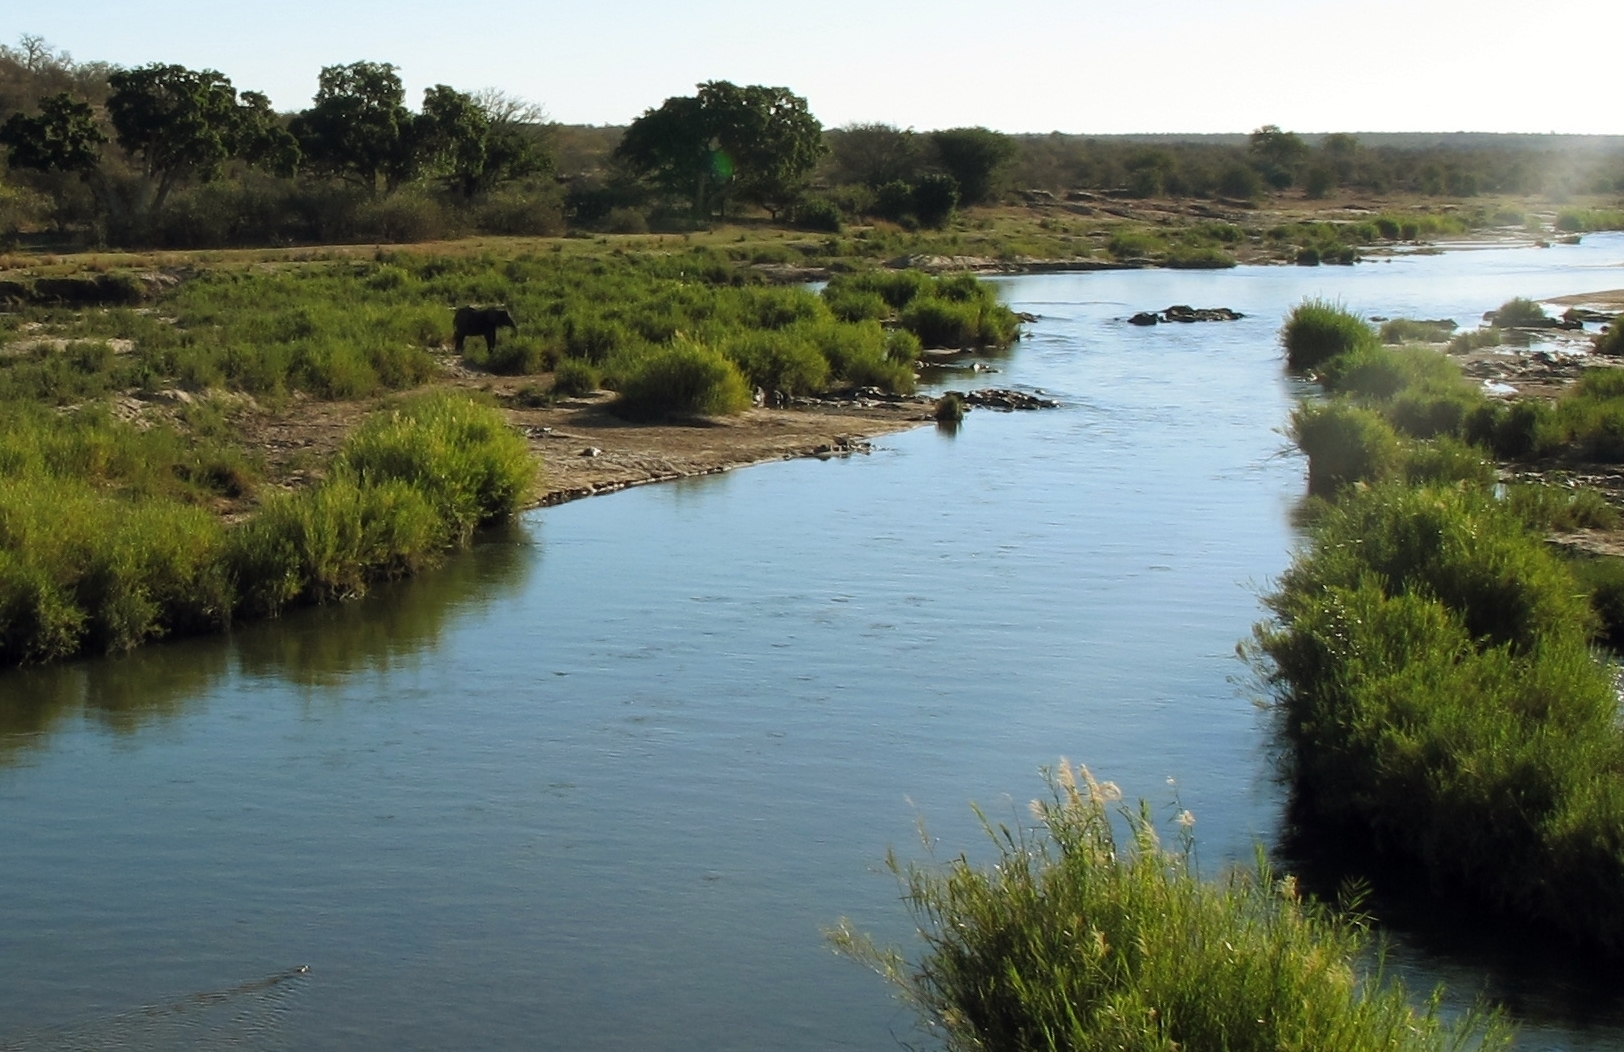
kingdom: Animalia
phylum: Chordata
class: Mammalia
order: Proboscidea
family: Elephantidae
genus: Loxodonta
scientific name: Loxodonta africana
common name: African elephant
